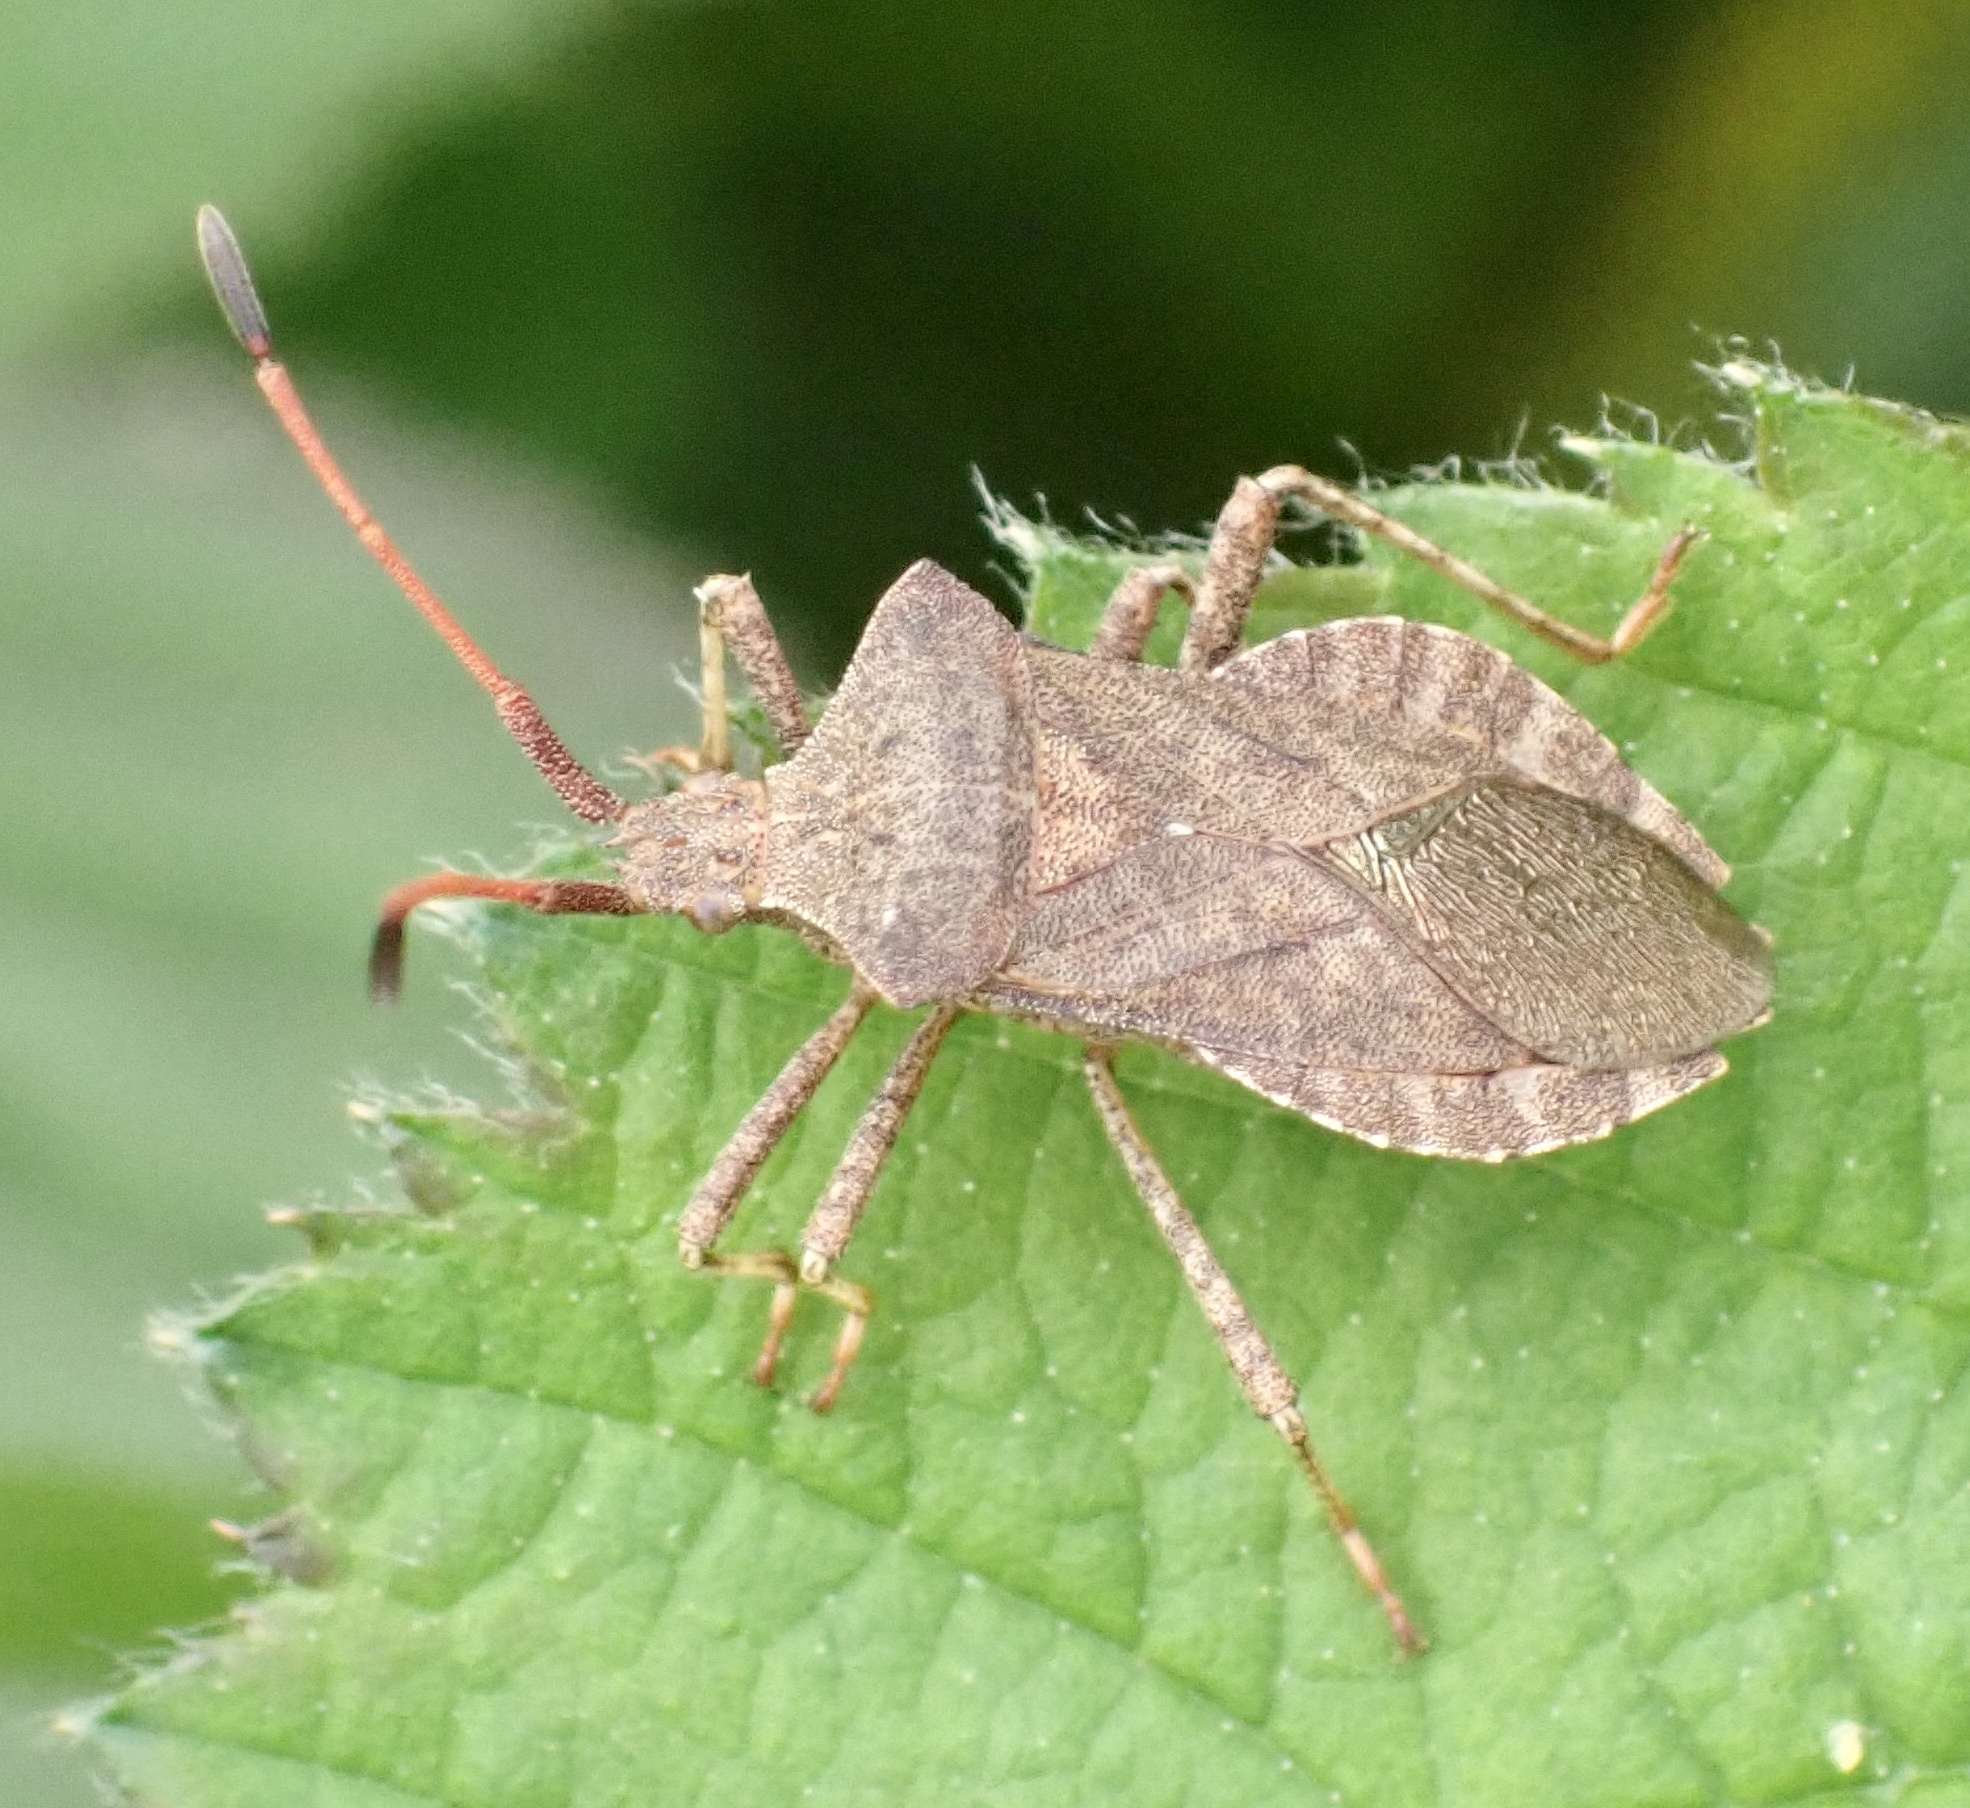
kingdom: Animalia
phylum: Arthropoda
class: Insecta
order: Hemiptera
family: Coreidae
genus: Coreus
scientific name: Coreus marginatus
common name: Dock bug
